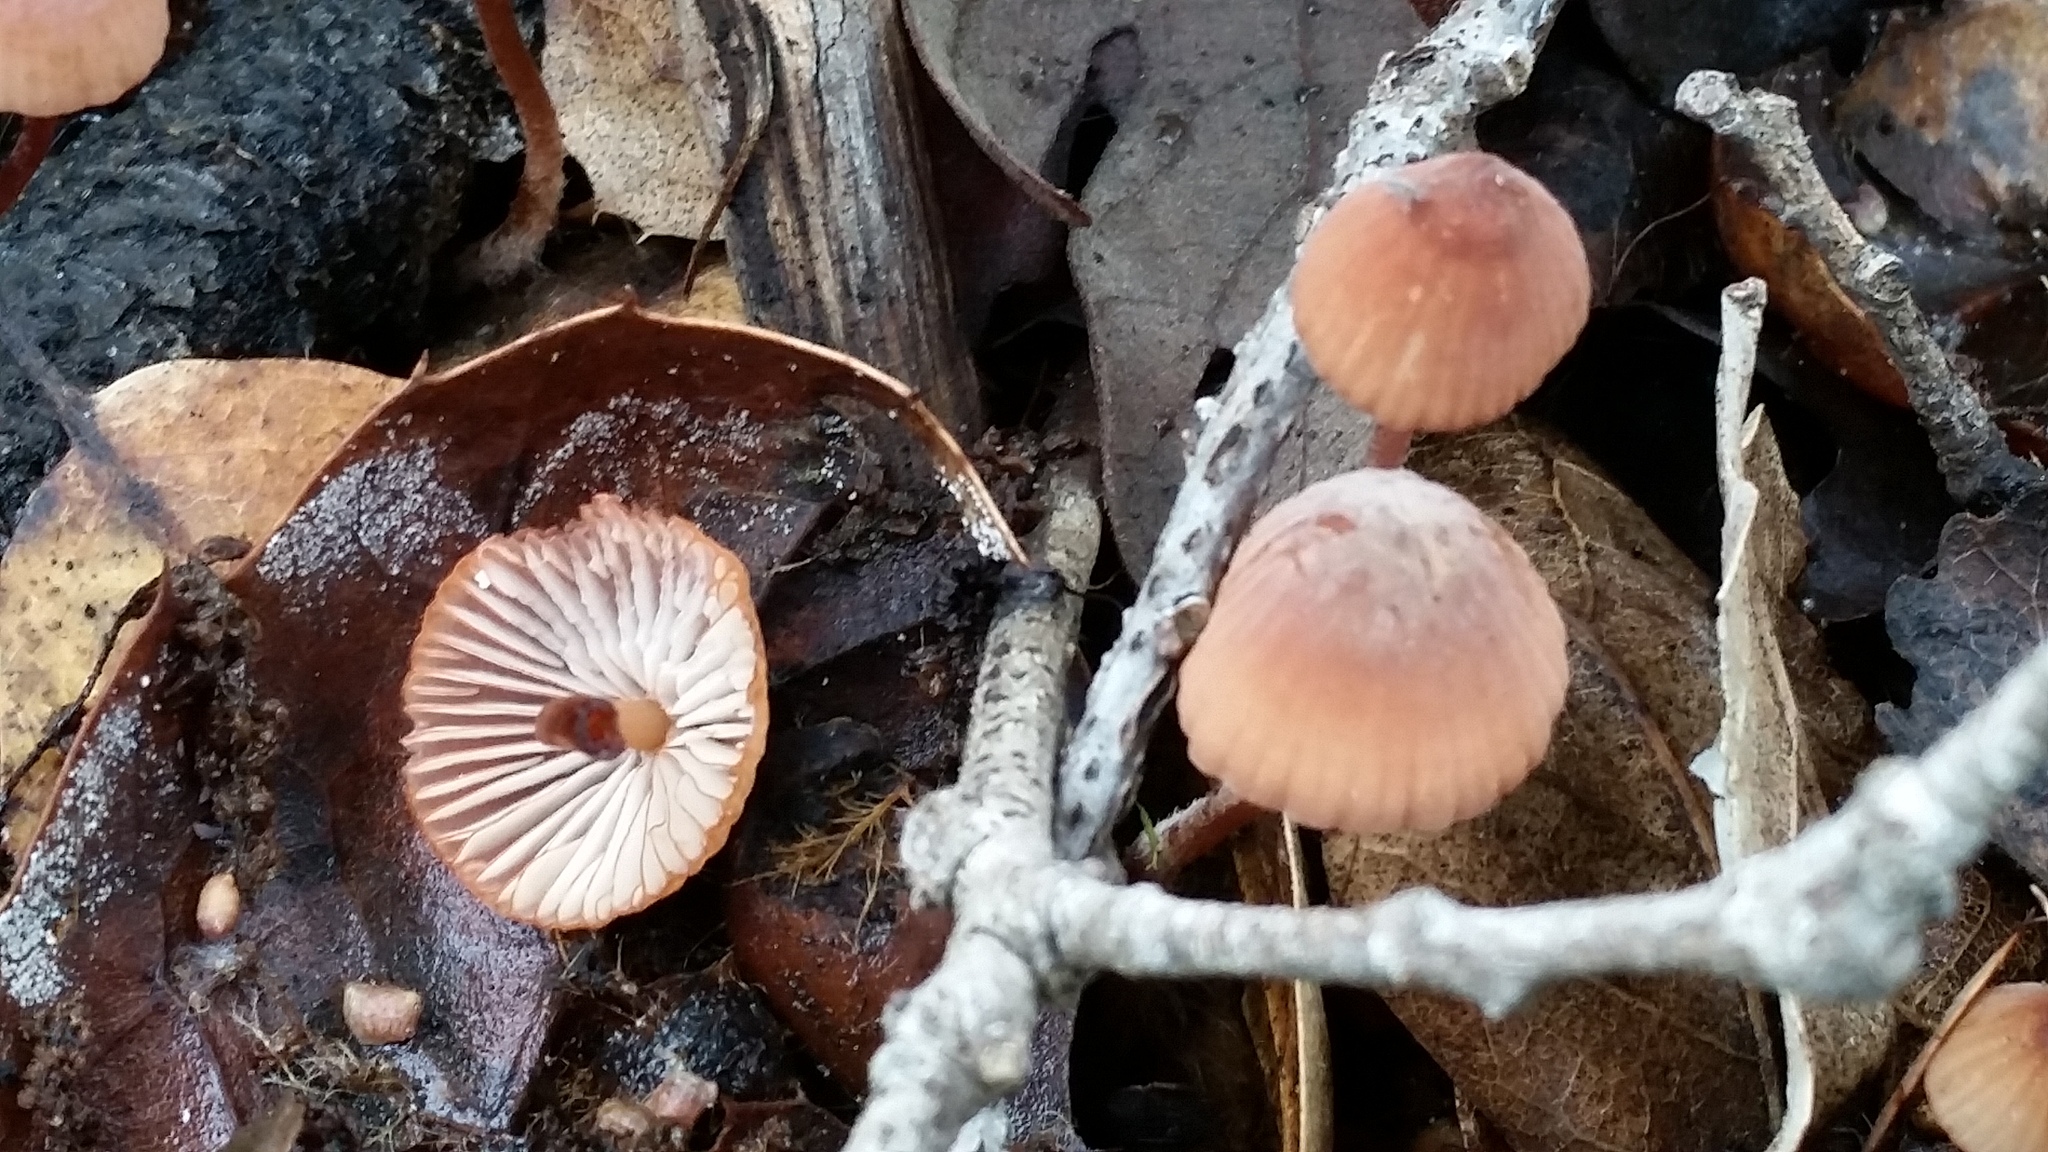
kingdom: Fungi
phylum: Basidiomycota
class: Agaricomycetes
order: Agaricales
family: Mycenaceae
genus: Mycena
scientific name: Mycena
